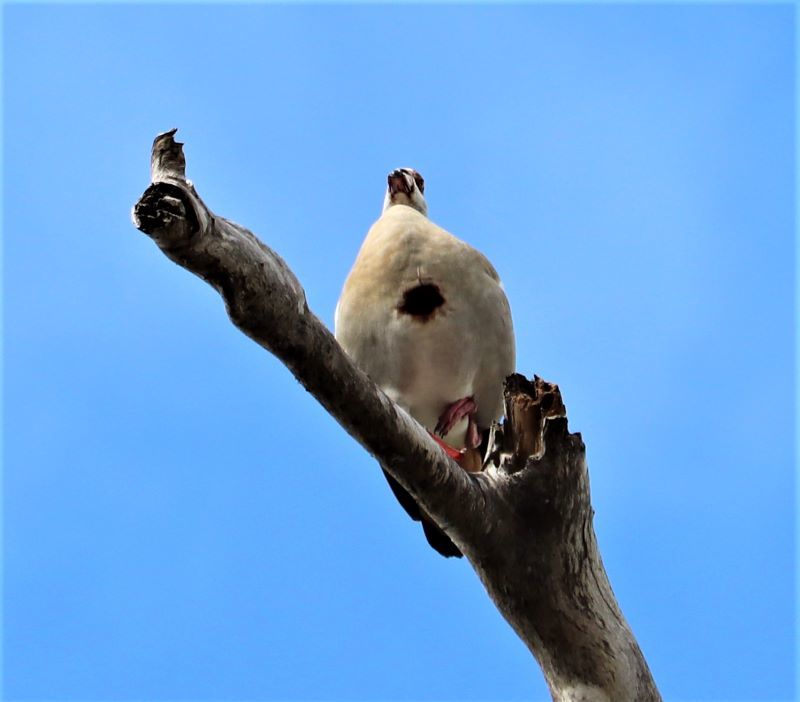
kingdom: Animalia
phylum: Chordata
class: Aves
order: Anseriformes
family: Anatidae
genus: Alopochen
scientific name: Alopochen aegyptiaca
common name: Egyptian goose
